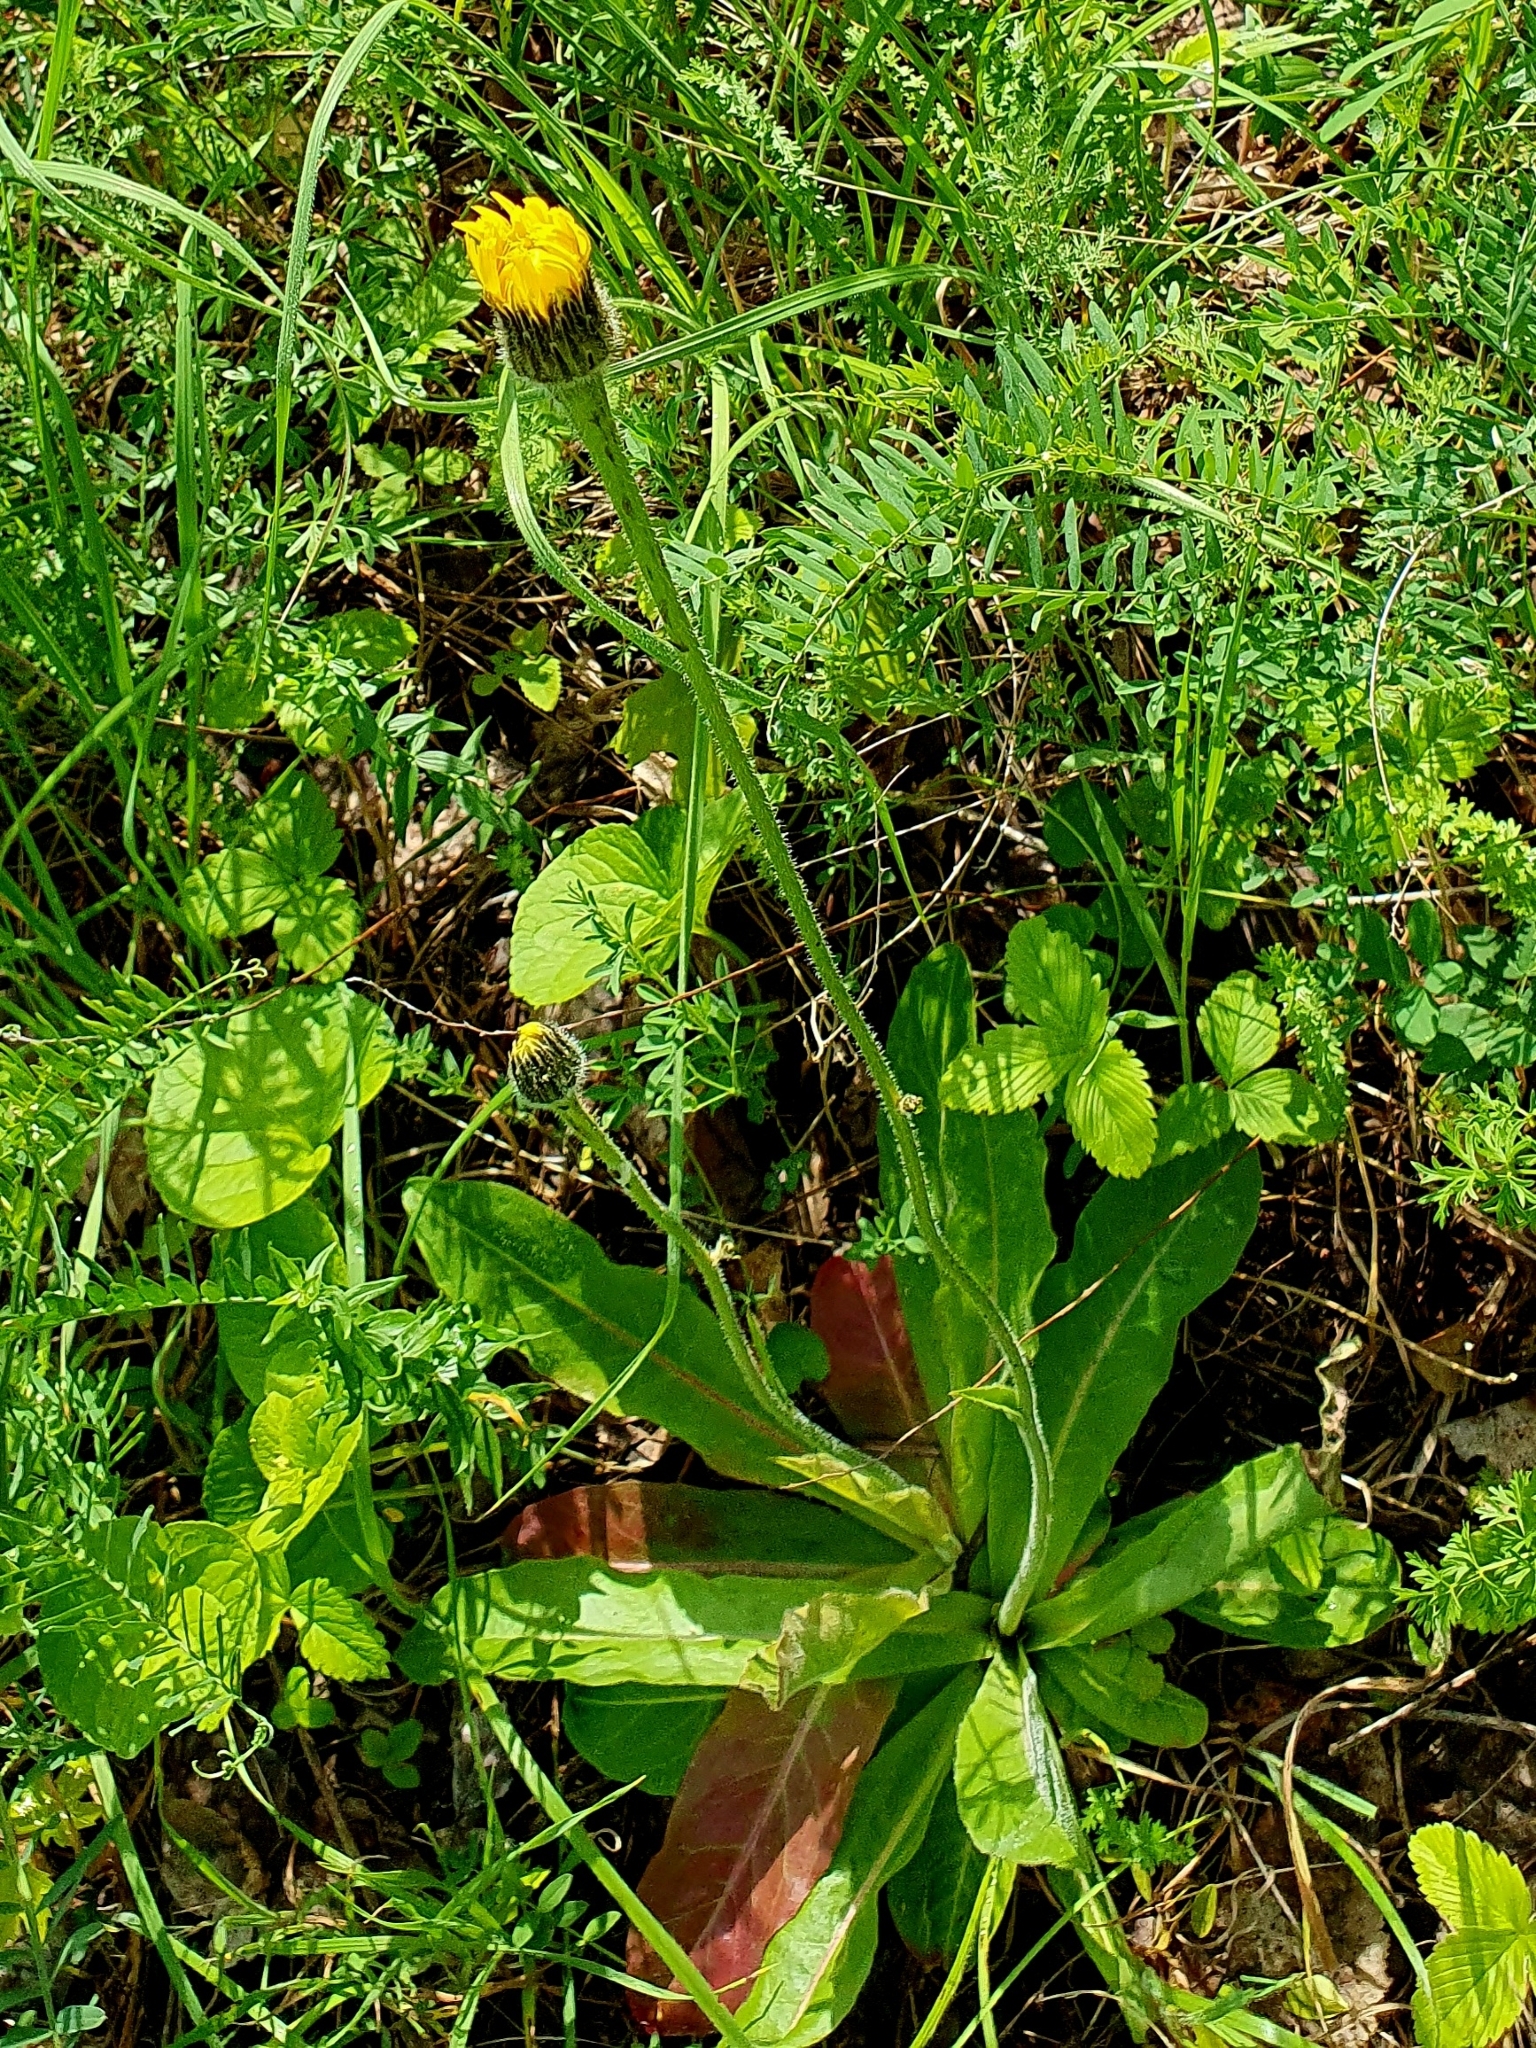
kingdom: Plantae
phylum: Tracheophyta
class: Magnoliopsida
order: Asterales
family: Asteraceae
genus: Trommsdorffia
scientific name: Trommsdorffia maculata
